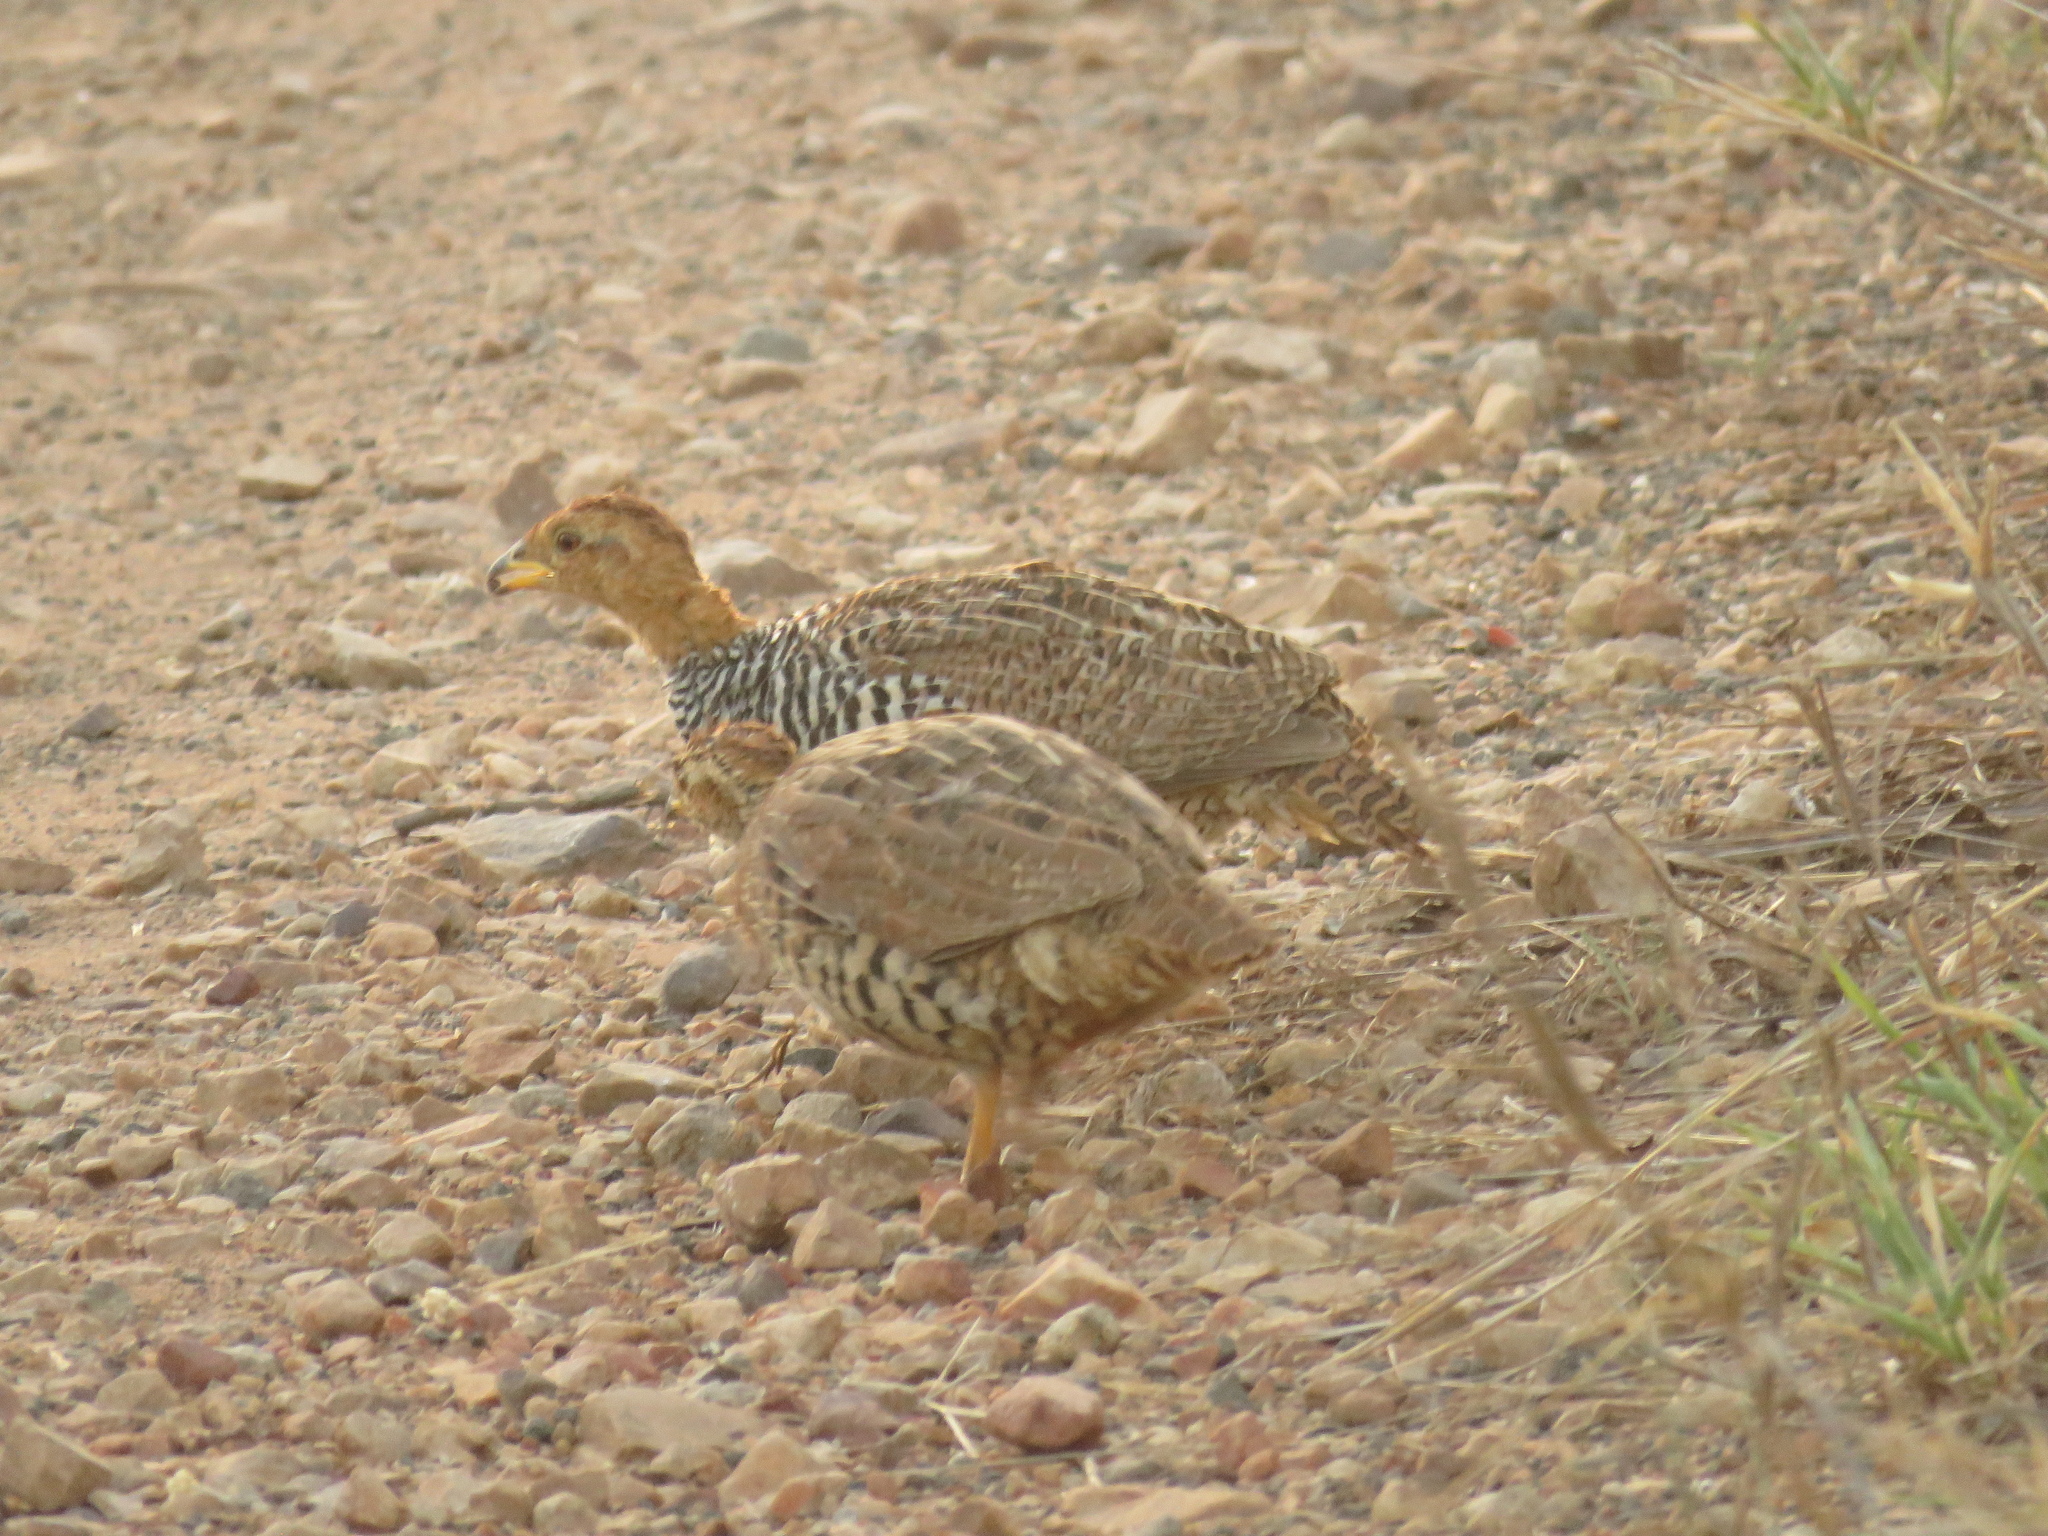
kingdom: Animalia
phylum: Chordata
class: Aves
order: Galliformes
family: Phasianidae
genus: Campocolinus
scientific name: Campocolinus coqui
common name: Coqui francolin
